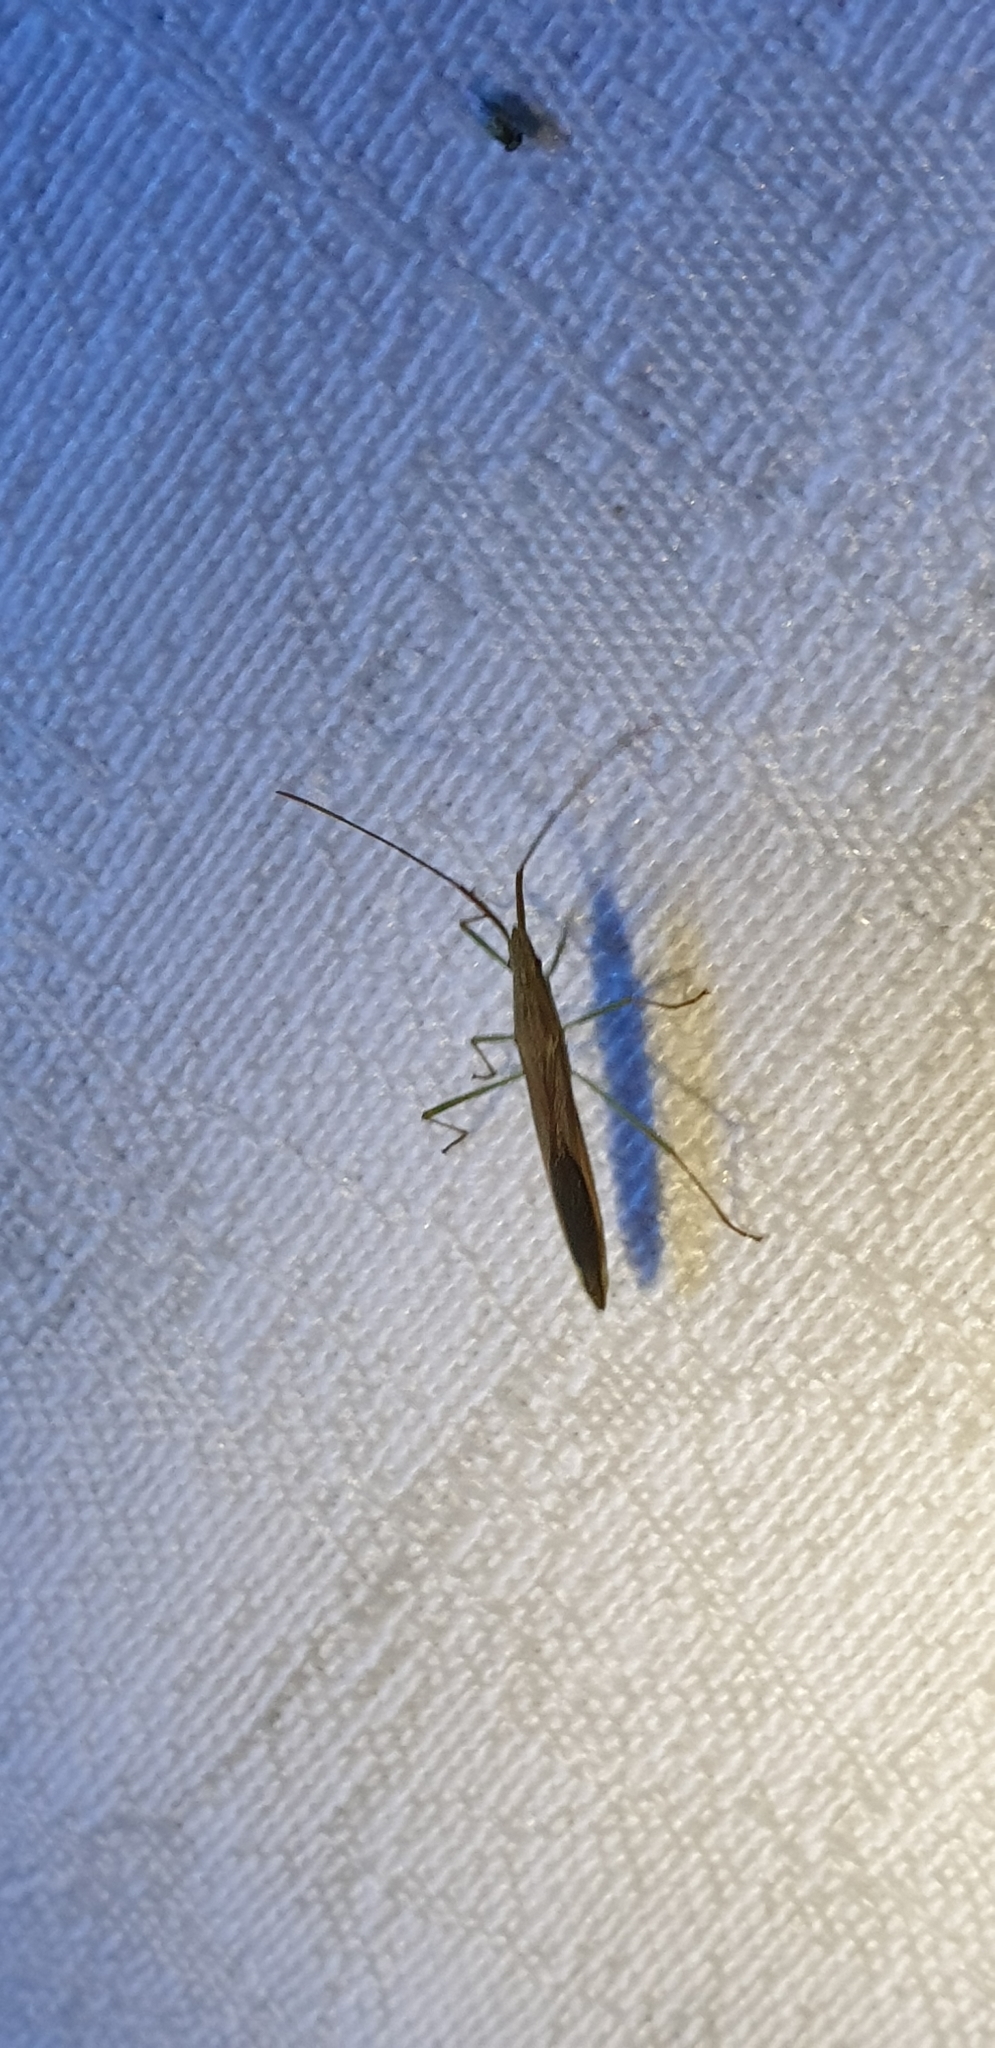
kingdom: Animalia
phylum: Arthropoda
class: Insecta
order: Hemiptera
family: Alydidae
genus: Mutusca
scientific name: Mutusca brevicornis
